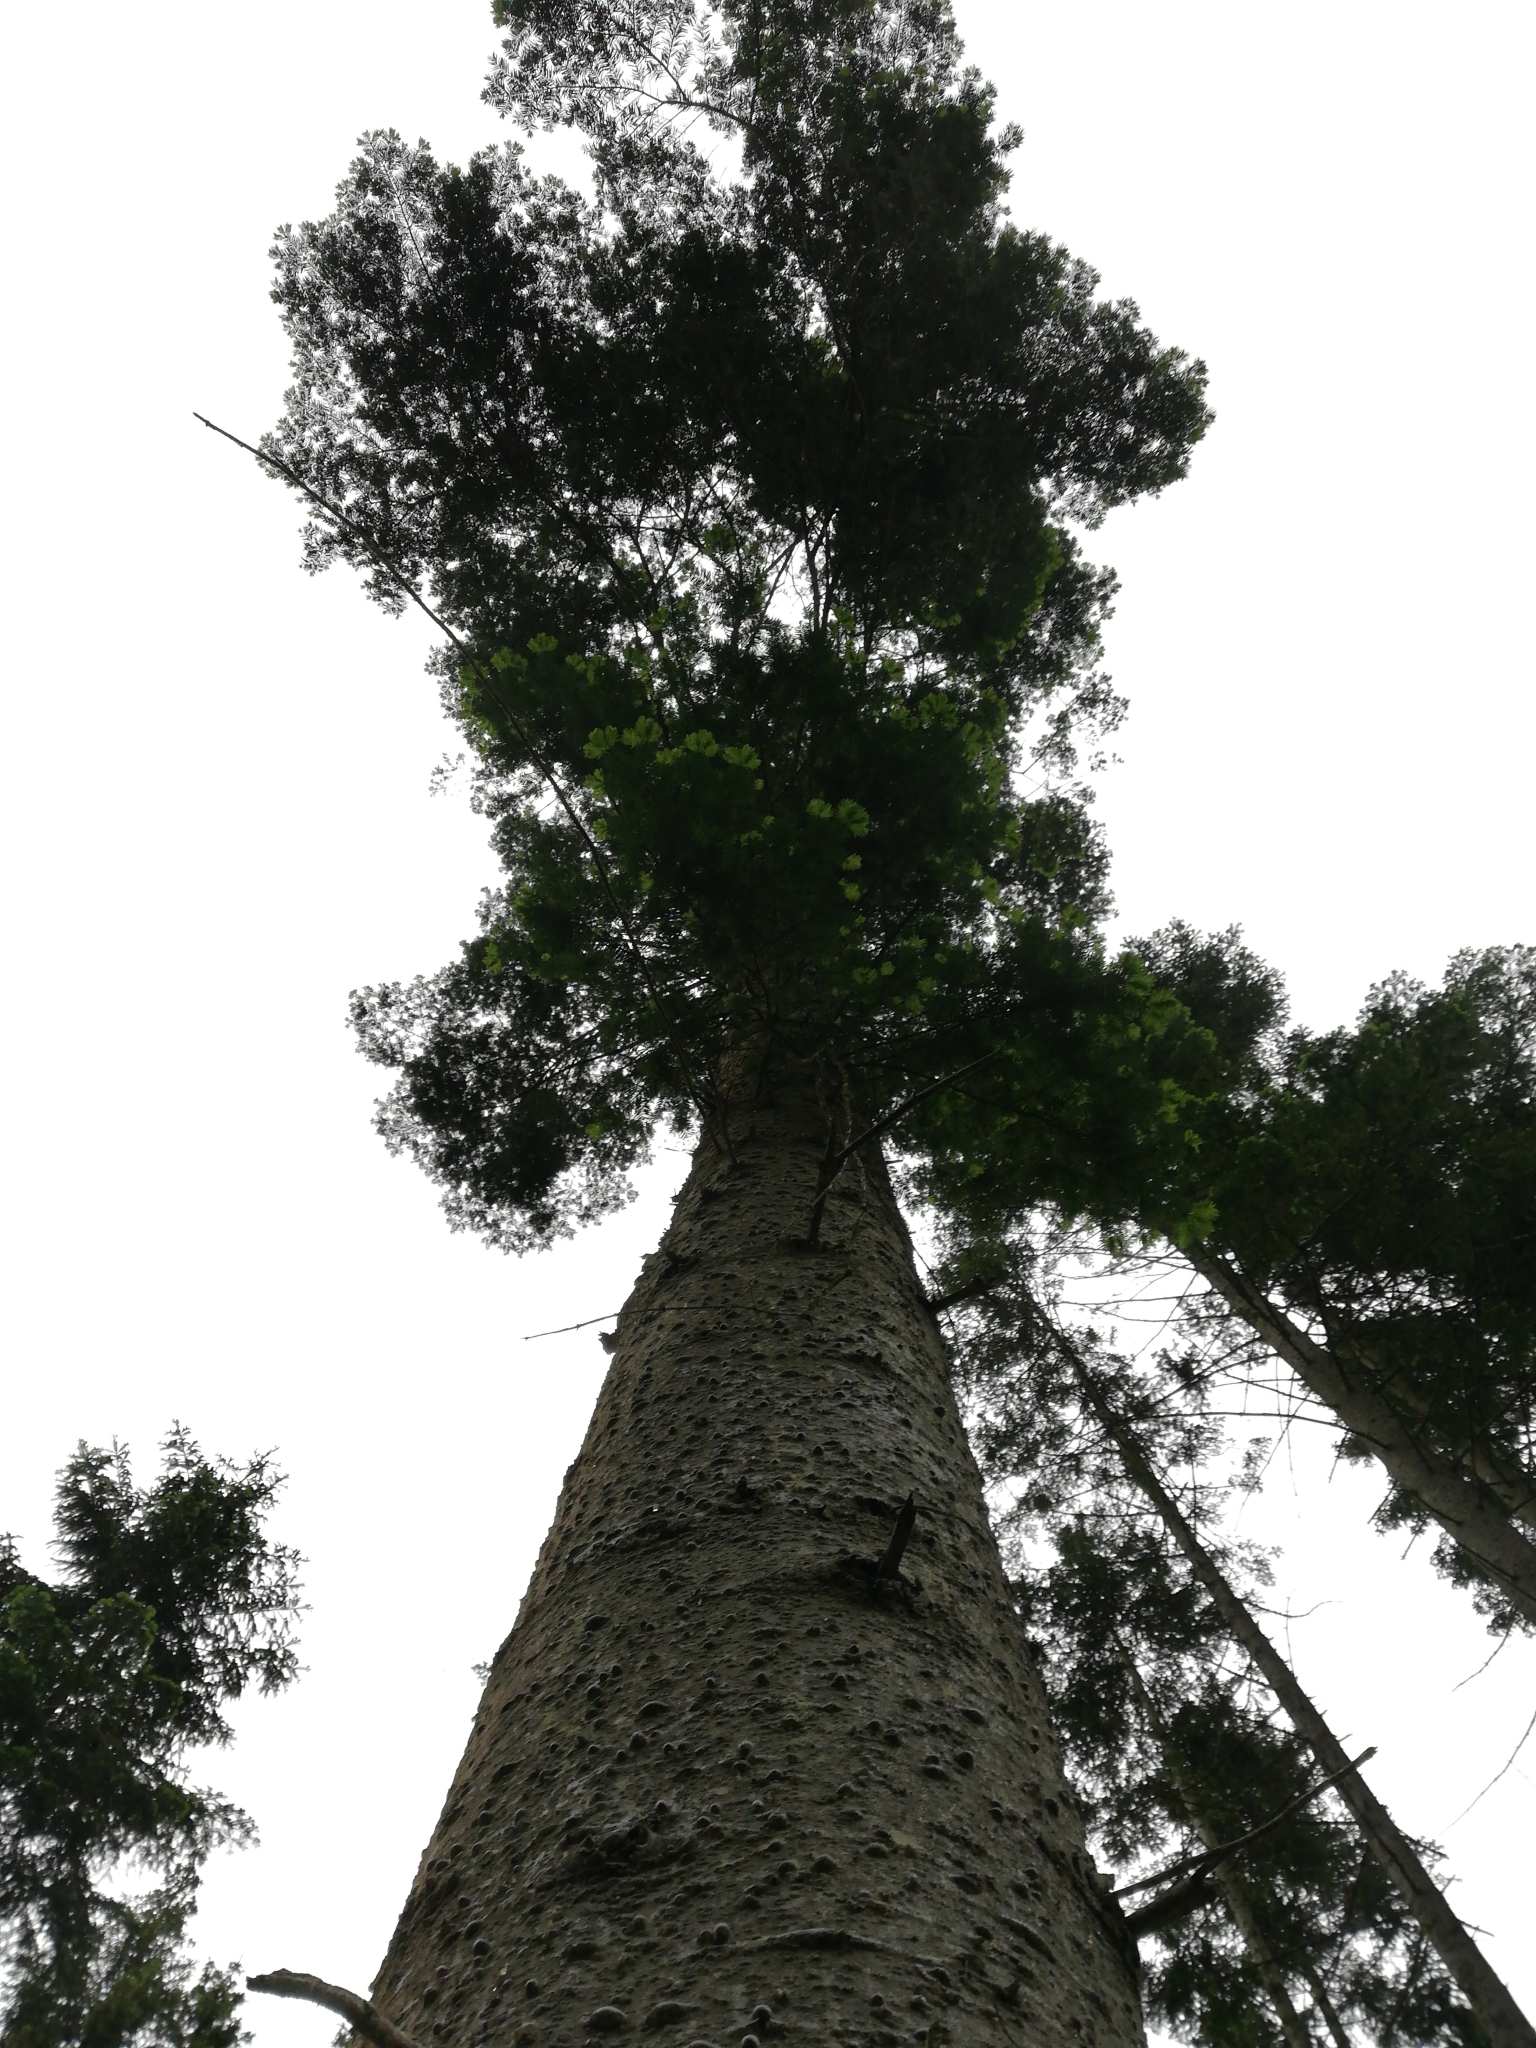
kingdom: Plantae
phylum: Tracheophyta
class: Pinopsida
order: Pinales
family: Pinaceae
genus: Abies
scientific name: Abies grandis
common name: Giant fir
